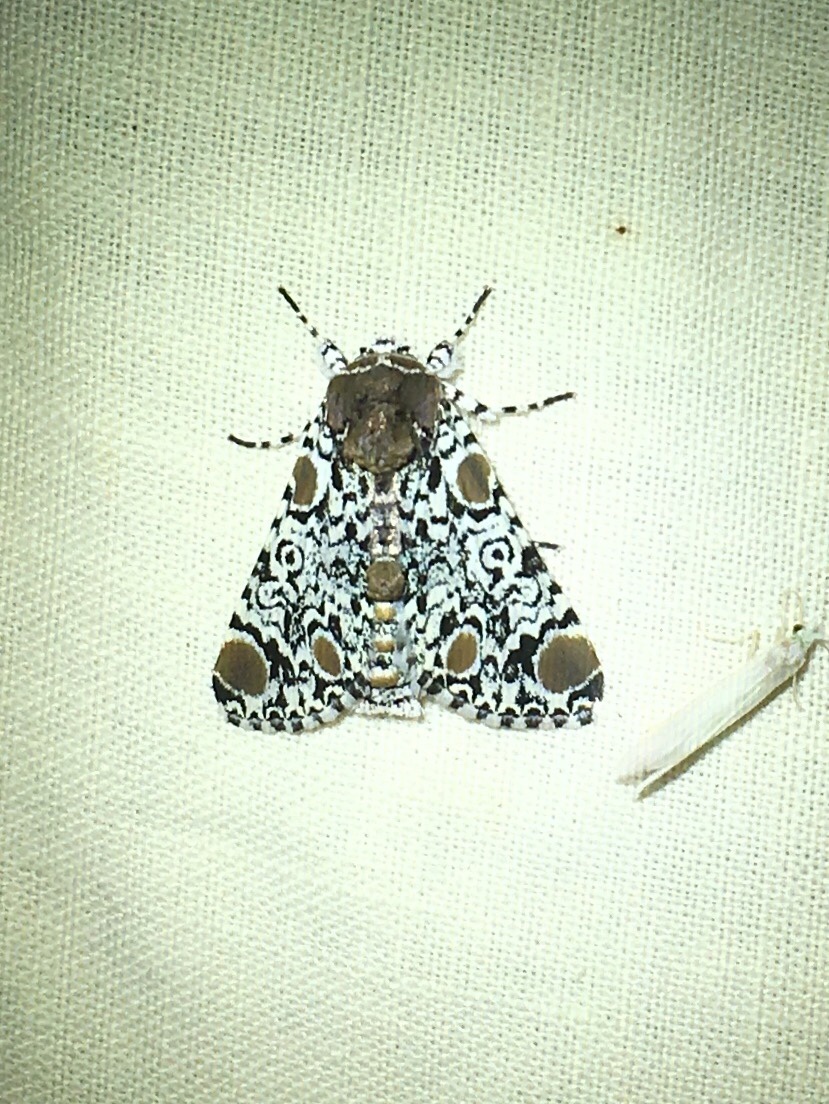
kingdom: Animalia
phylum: Arthropoda
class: Insecta
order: Lepidoptera
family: Noctuidae
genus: Harrisimemna
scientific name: Harrisimemna trisignata
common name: Harris threespot
